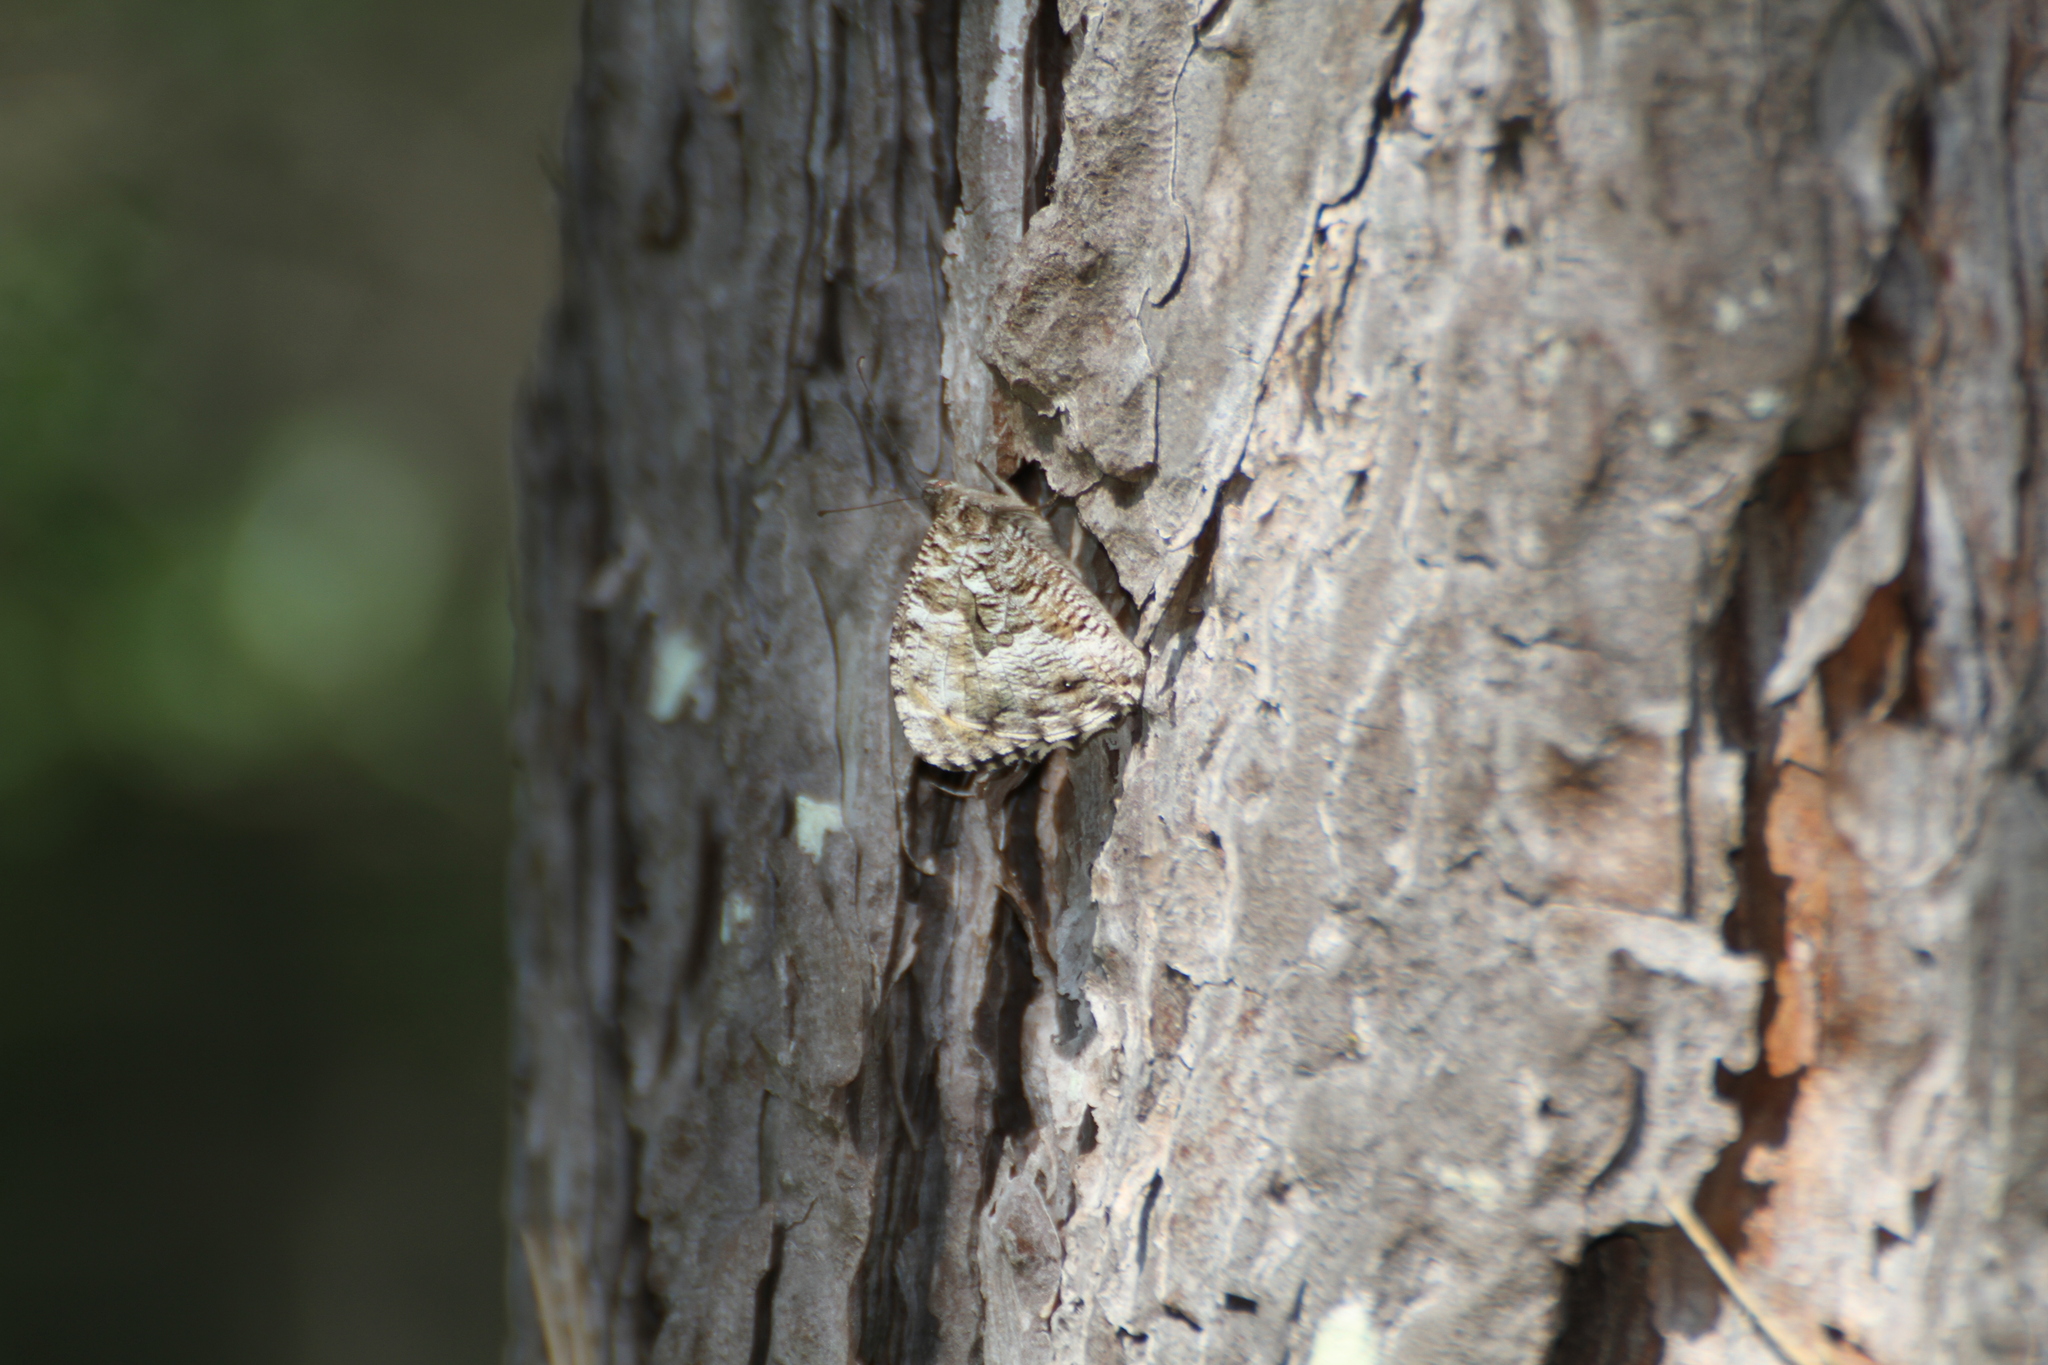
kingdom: Animalia
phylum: Arthropoda
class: Insecta
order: Lepidoptera
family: Nymphalidae
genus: Hipparchia
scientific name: Hipparchia semele
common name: Grayling
